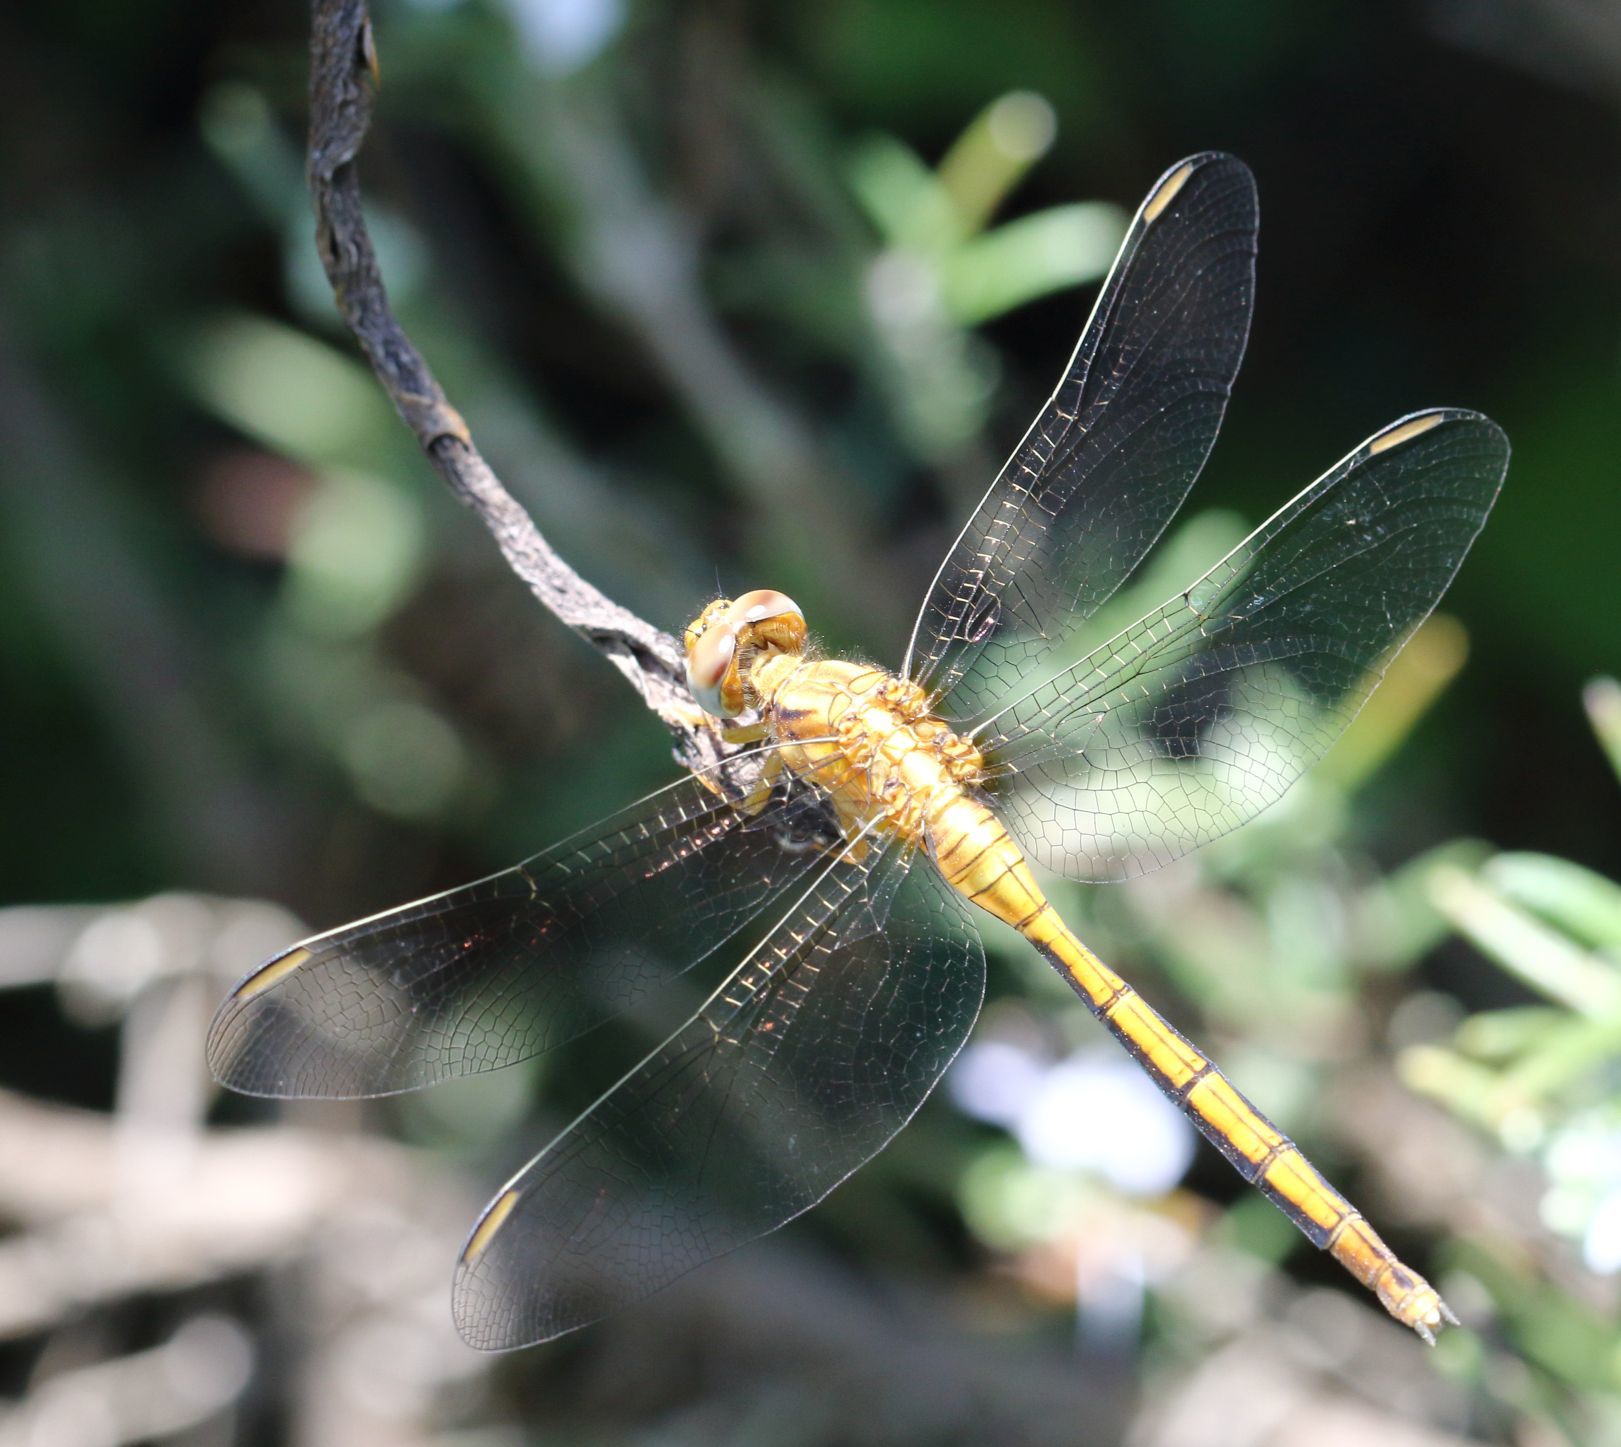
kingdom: Animalia
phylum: Arthropoda
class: Insecta
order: Odonata
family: Libellulidae
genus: Orthetrum
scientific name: Orthetrum machadoi
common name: Highland skimmer
